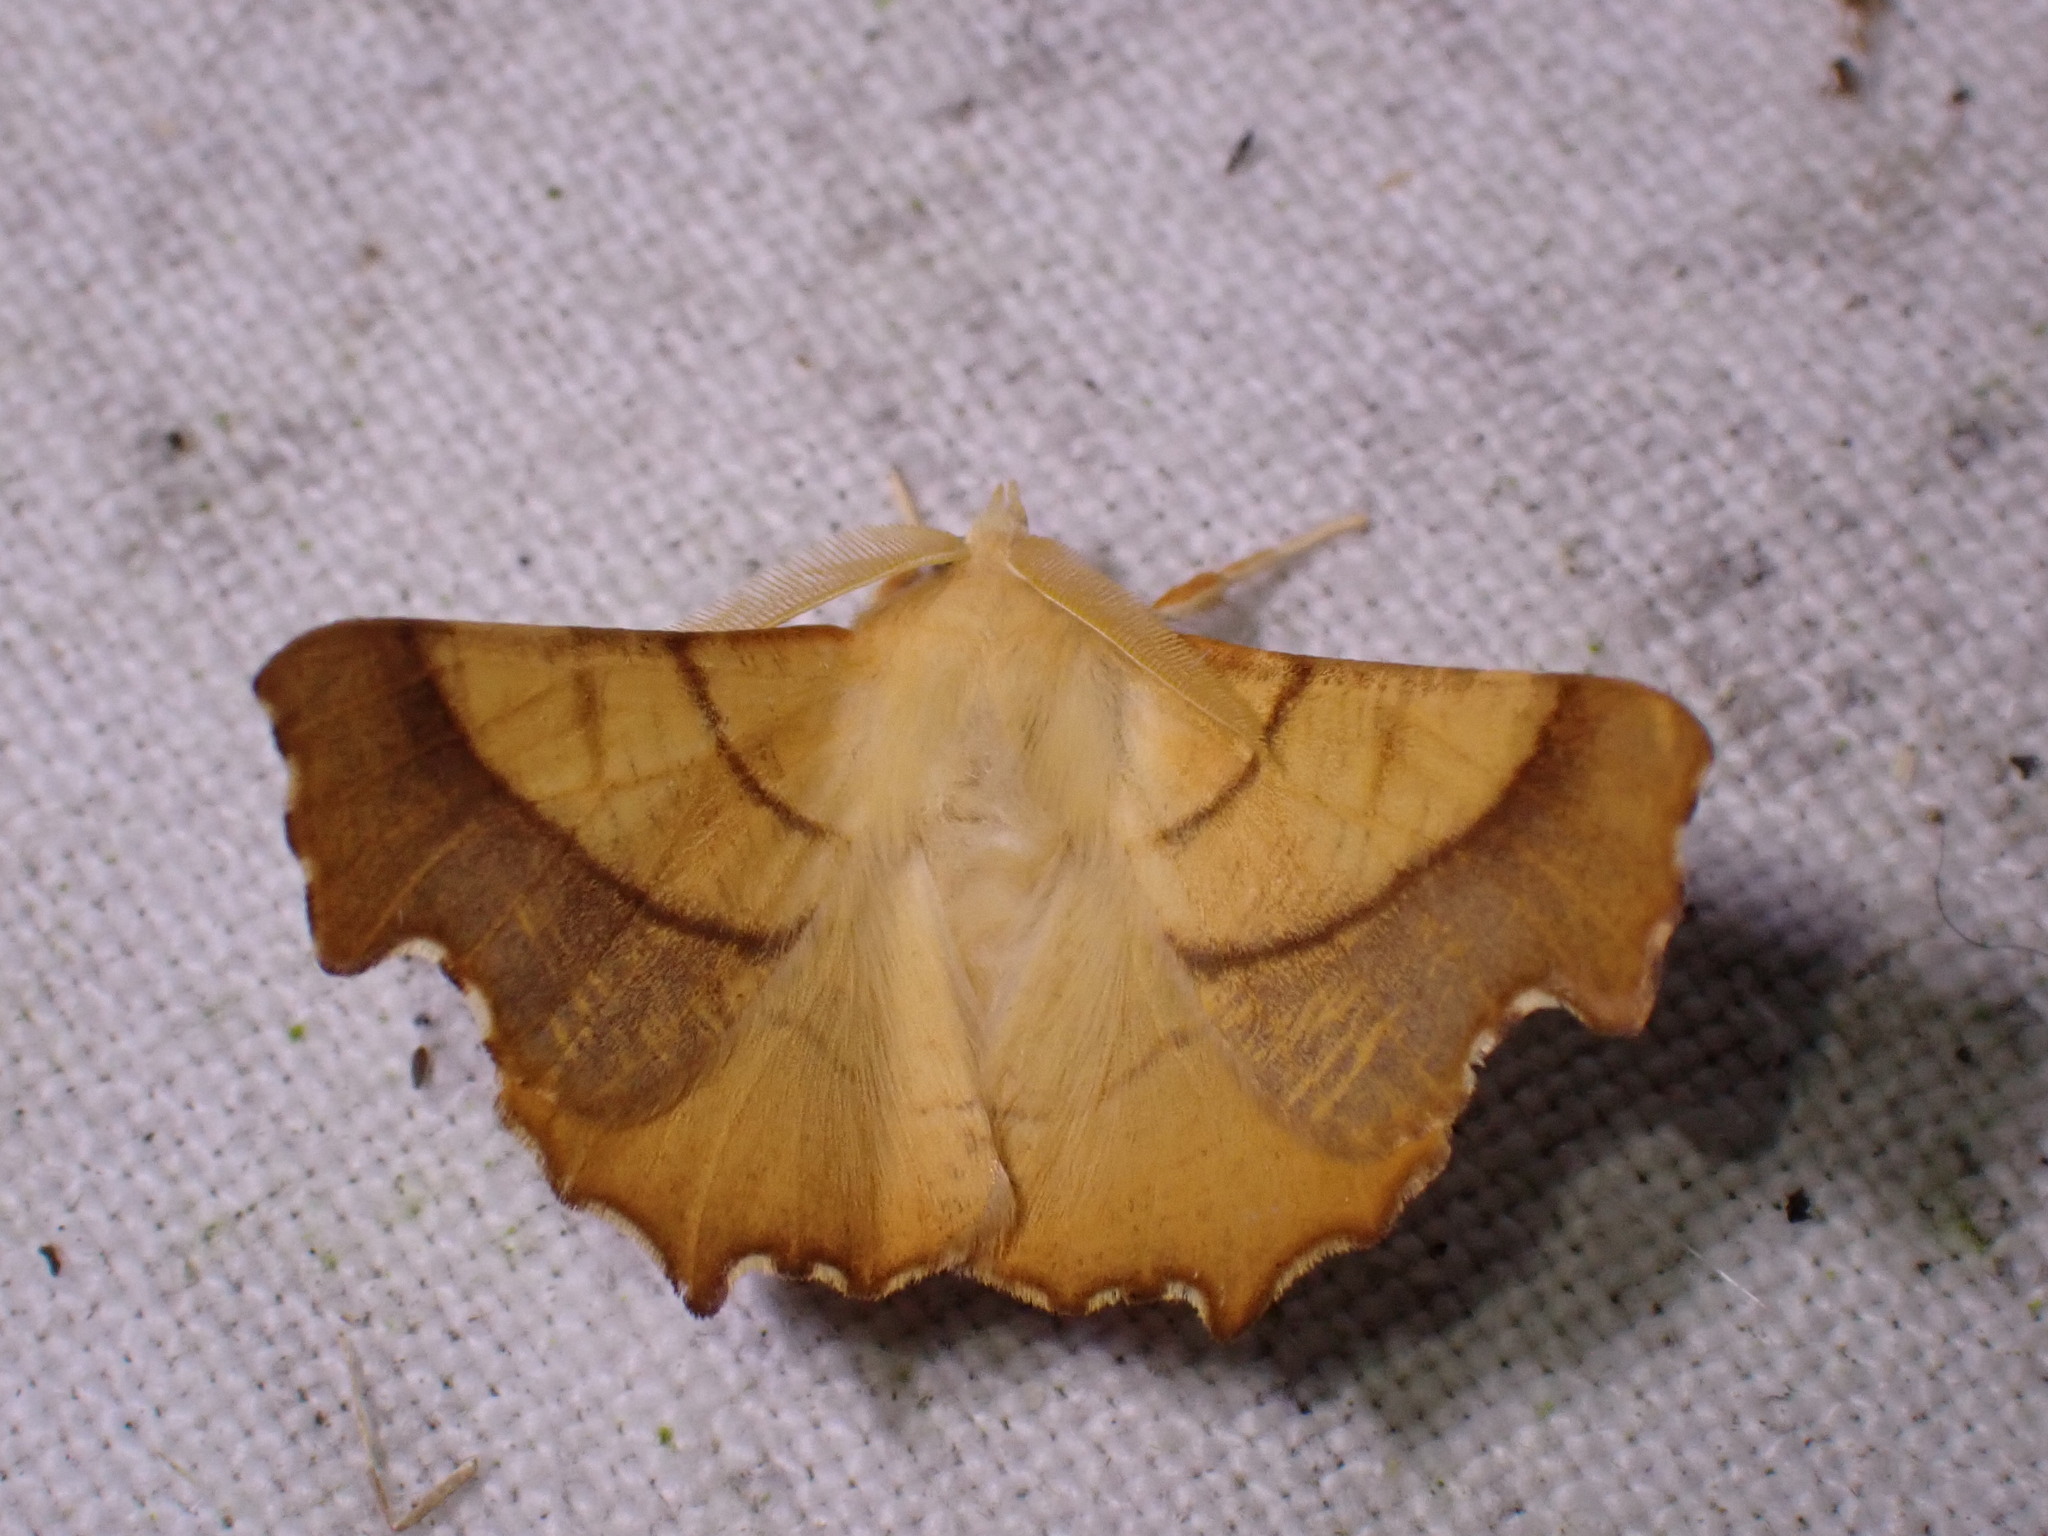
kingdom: Animalia
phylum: Arthropoda
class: Insecta
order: Lepidoptera
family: Geometridae
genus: Ennomos
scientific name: Ennomos fuscantaria
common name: Dusky thorn
